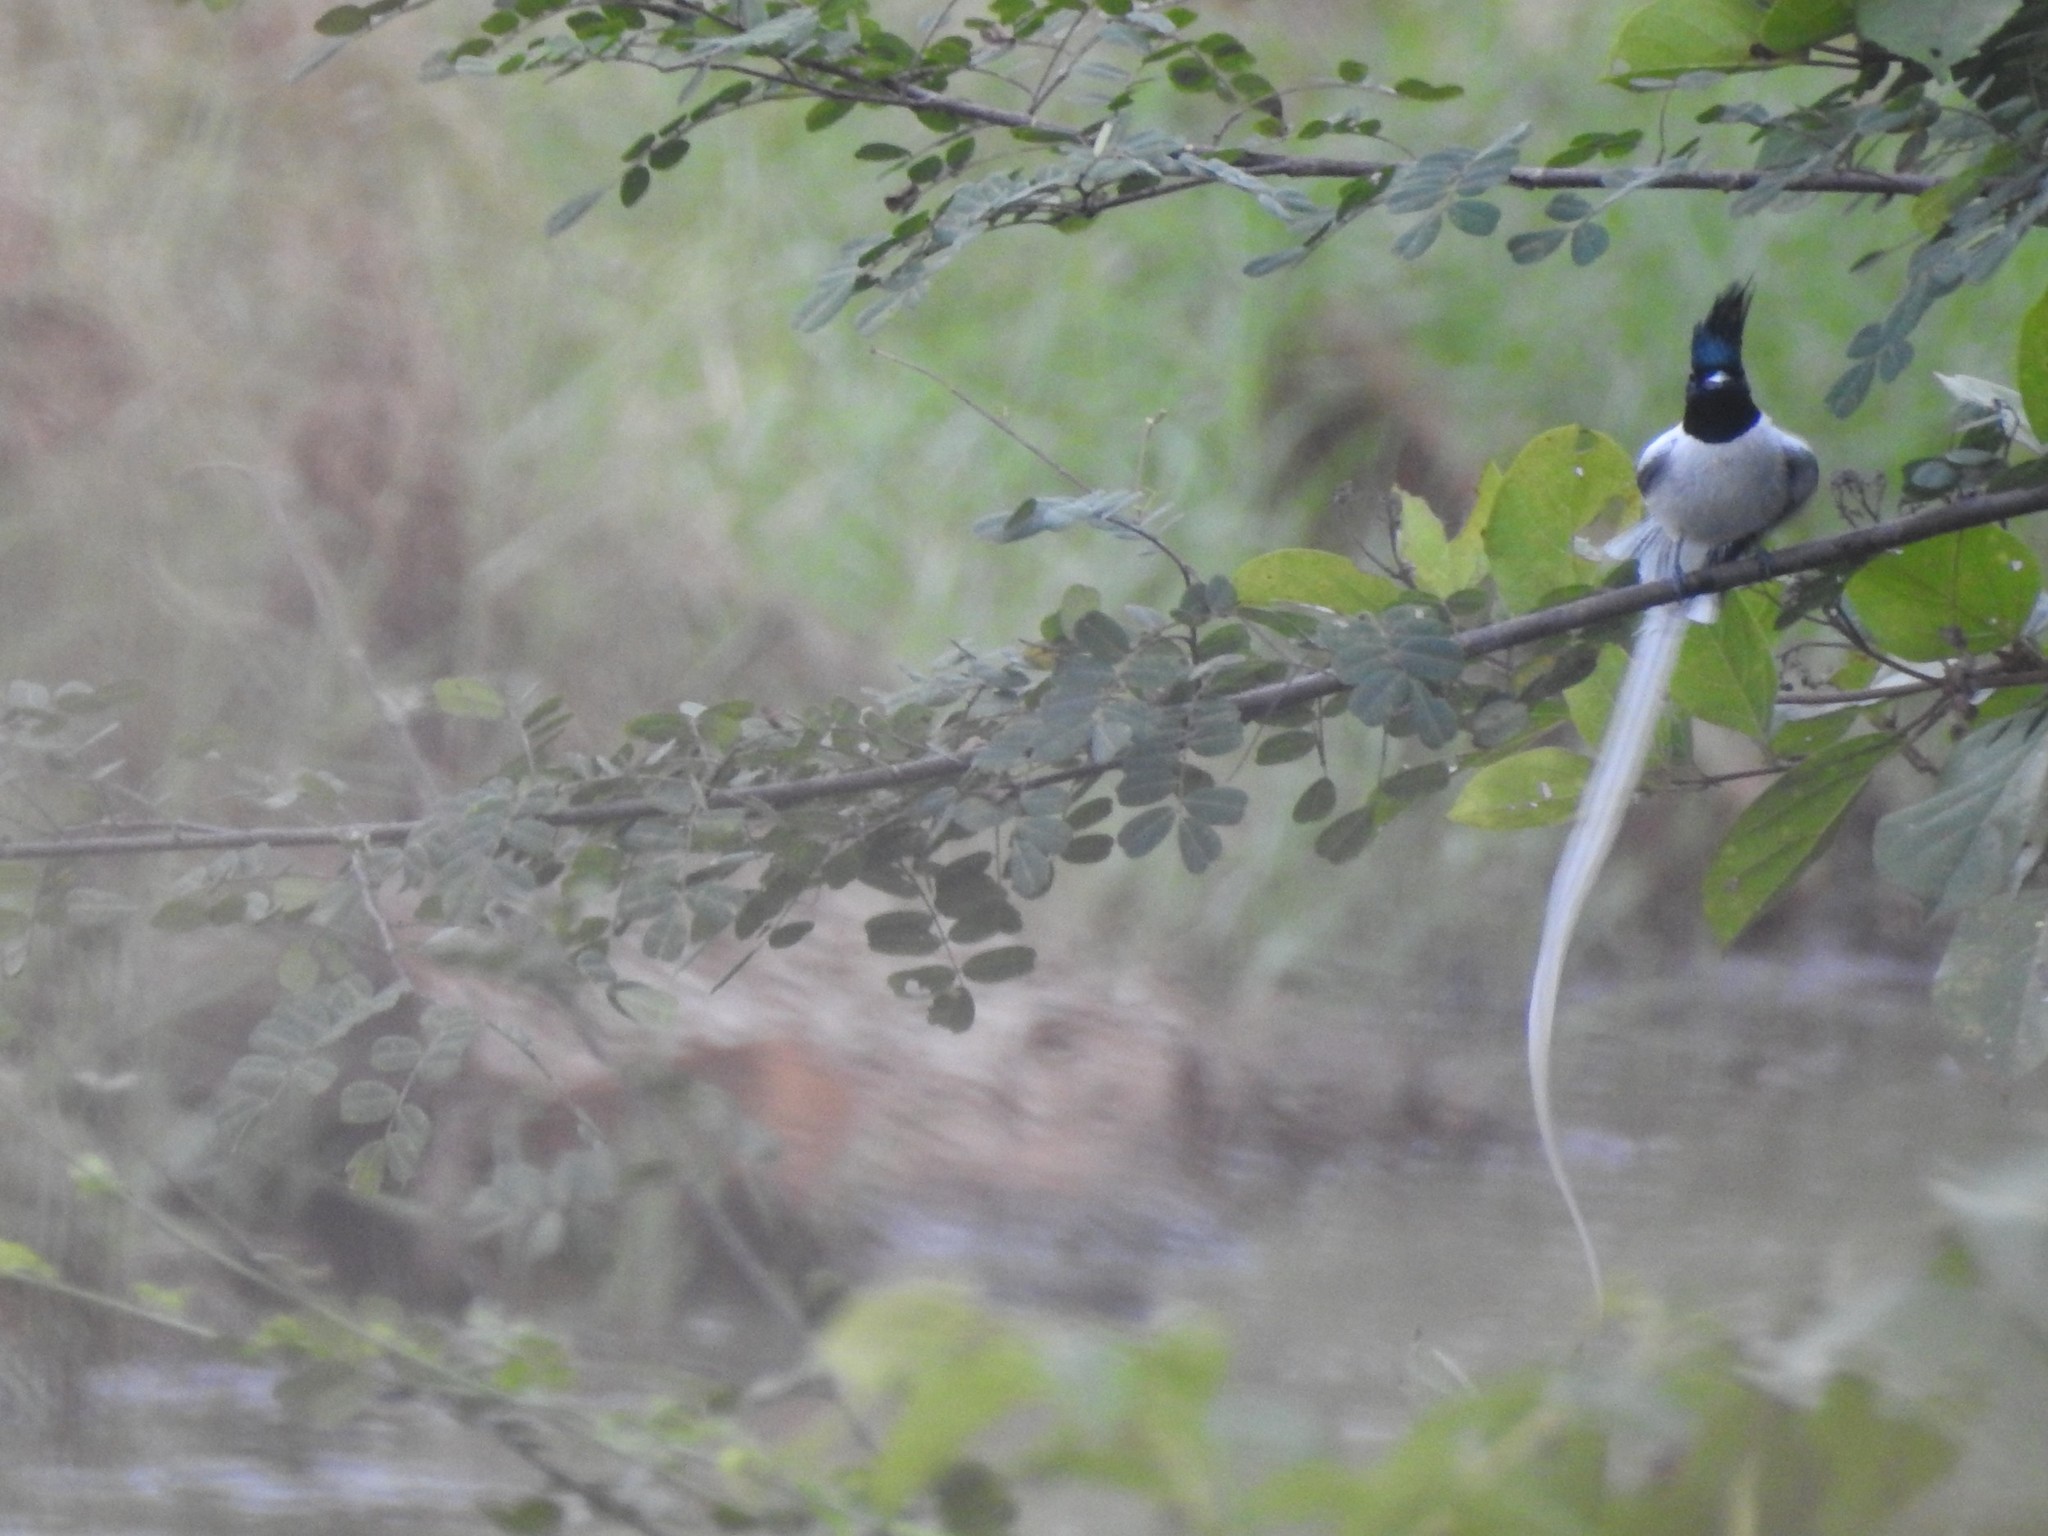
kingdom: Animalia
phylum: Chordata
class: Aves
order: Passeriformes
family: Monarchidae
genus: Terpsiphone
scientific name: Terpsiphone paradisi
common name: Indian paradise flycatcher
